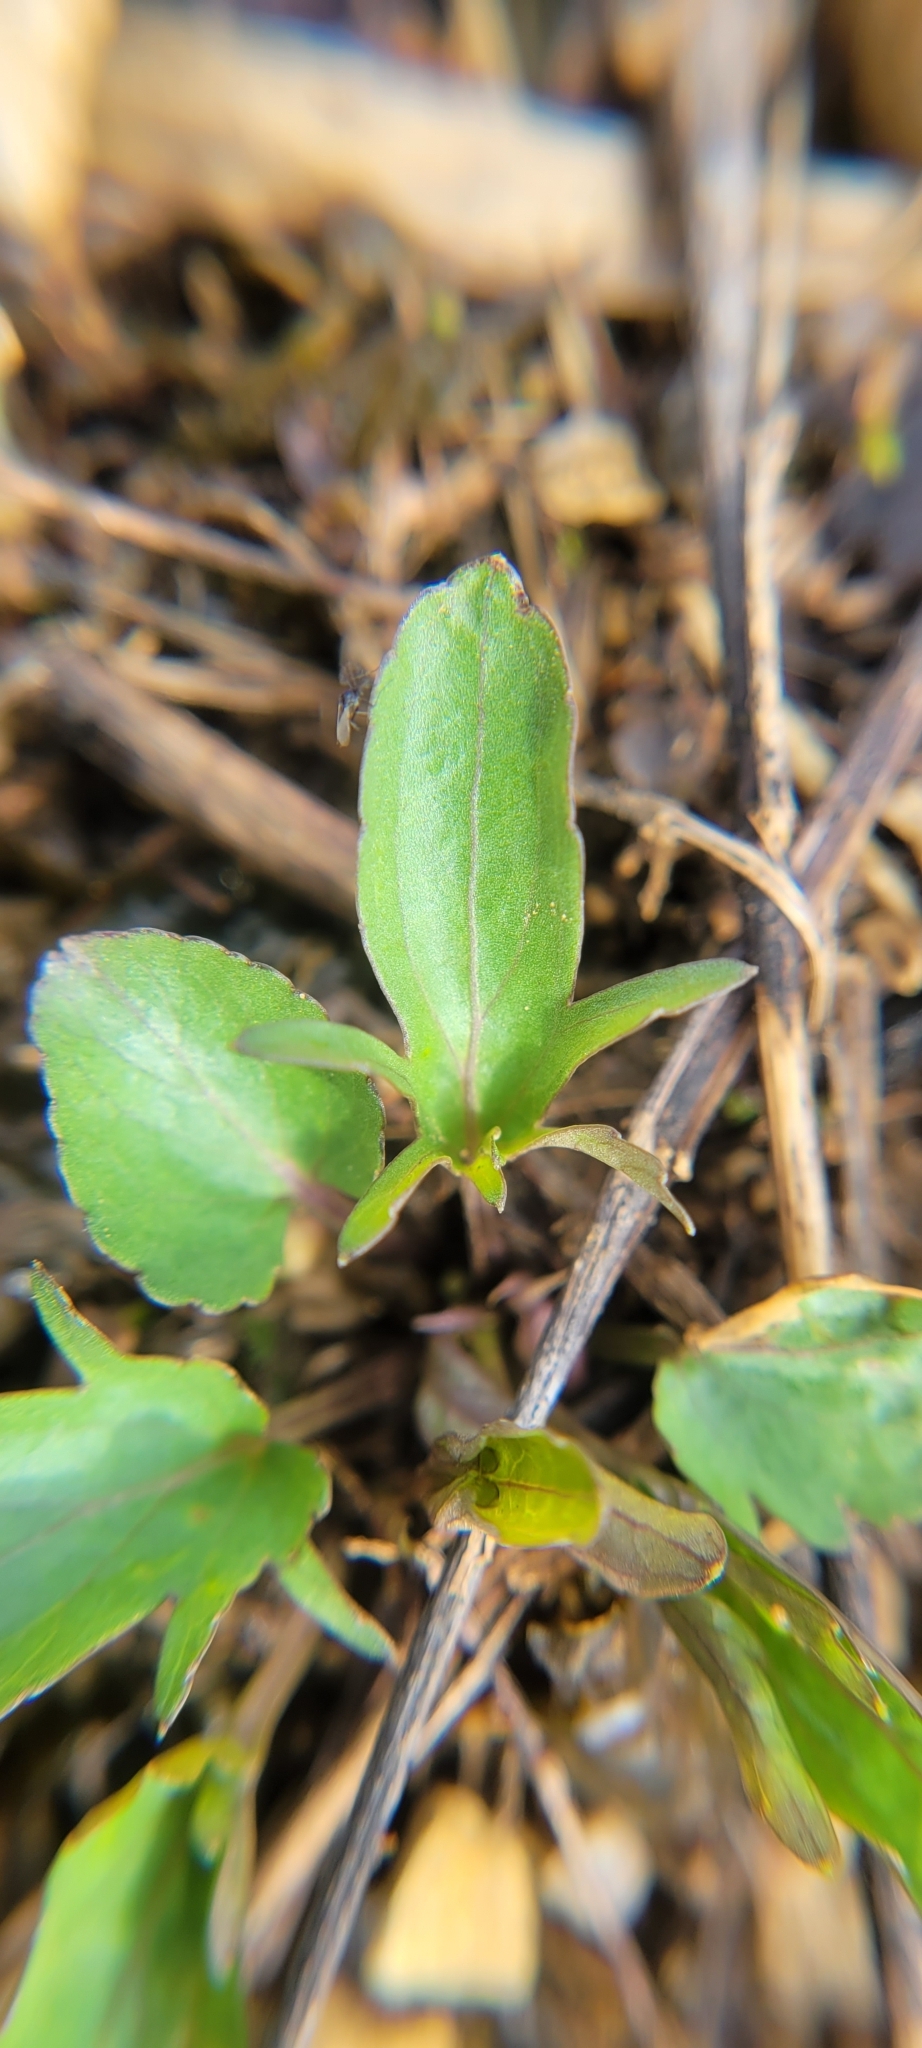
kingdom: Plantae
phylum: Tracheophyta
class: Magnoliopsida
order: Malpighiales
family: Violaceae
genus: Viola
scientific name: Viola egglestonii
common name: Glade violet
